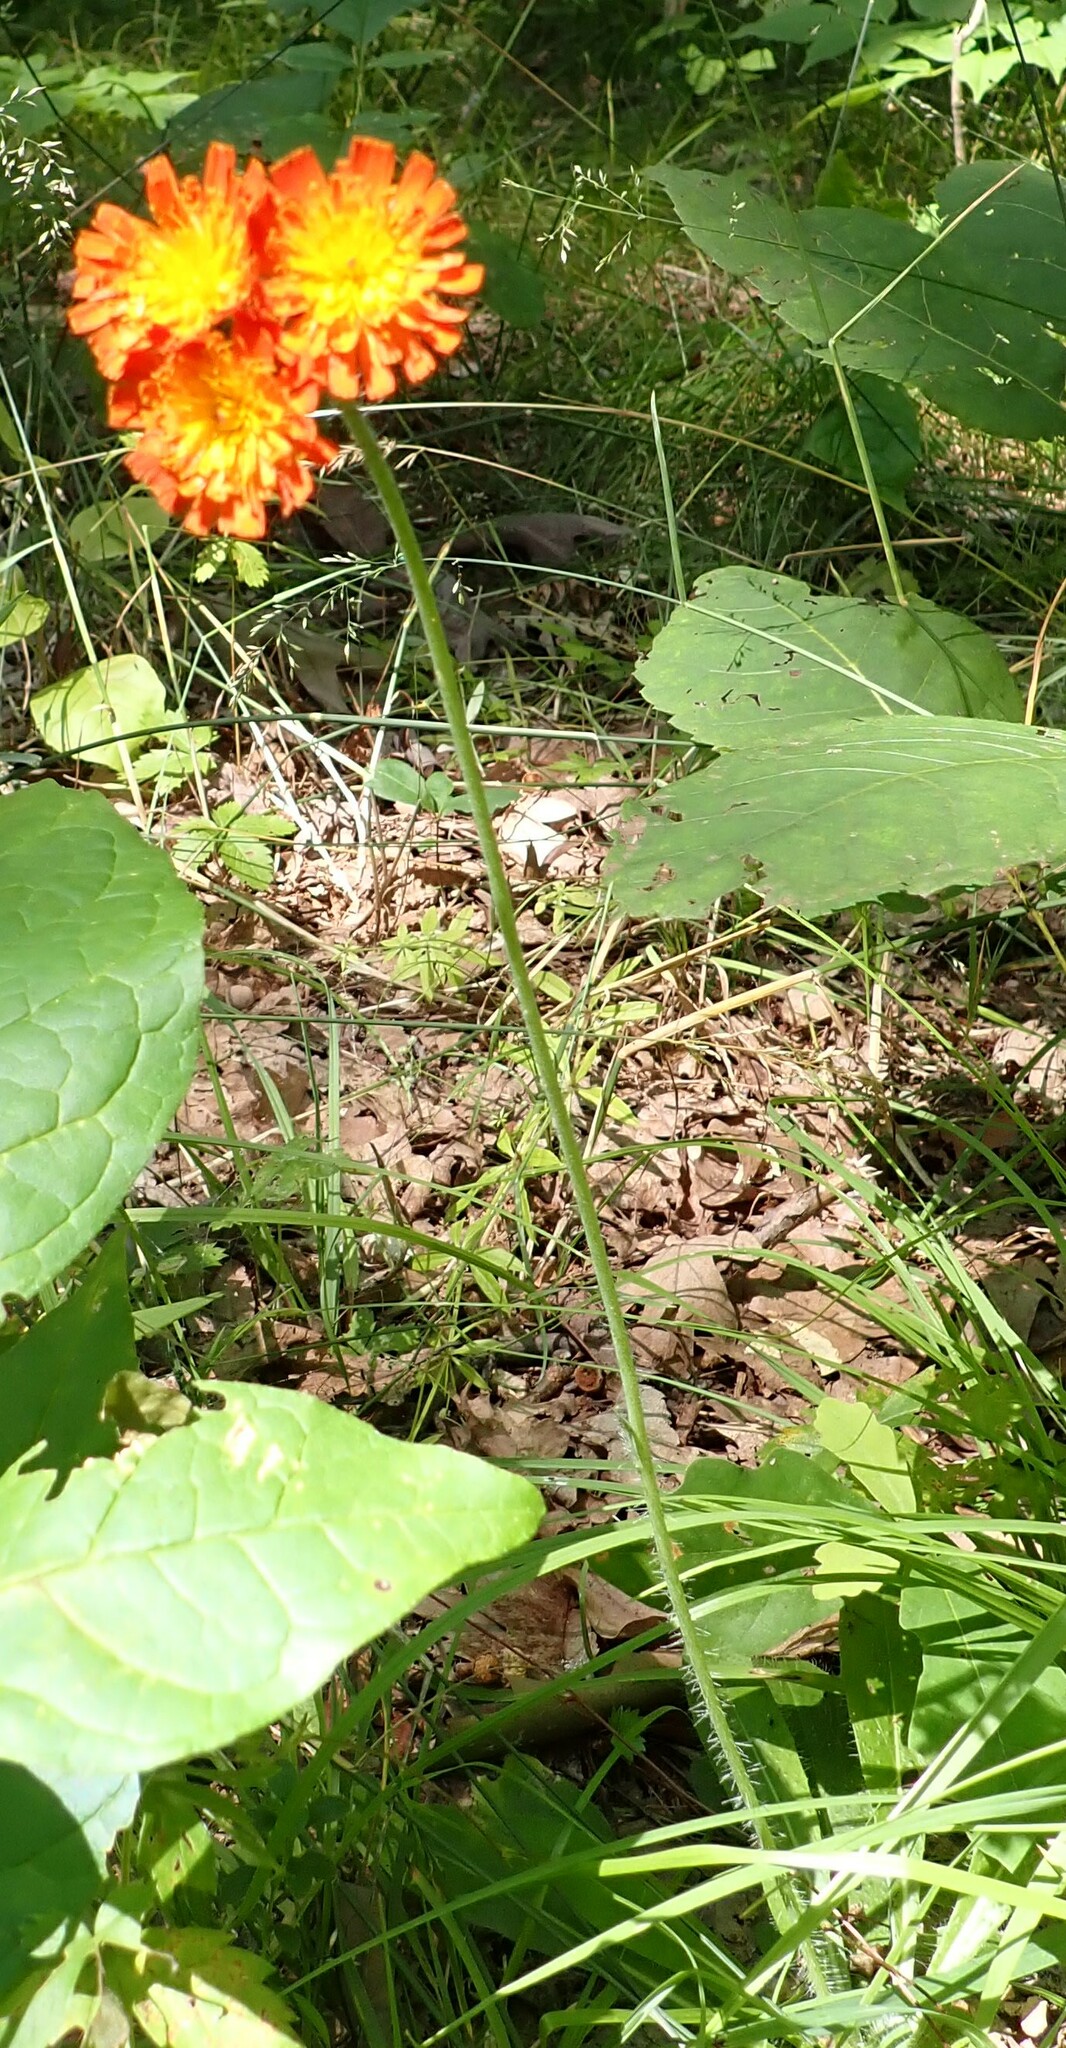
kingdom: Plantae
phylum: Tracheophyta
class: Magnoliopsida
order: Asterales
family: Asteraceae
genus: Pilosella
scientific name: Pilosella aurantiaca
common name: Fox-and-cubs
